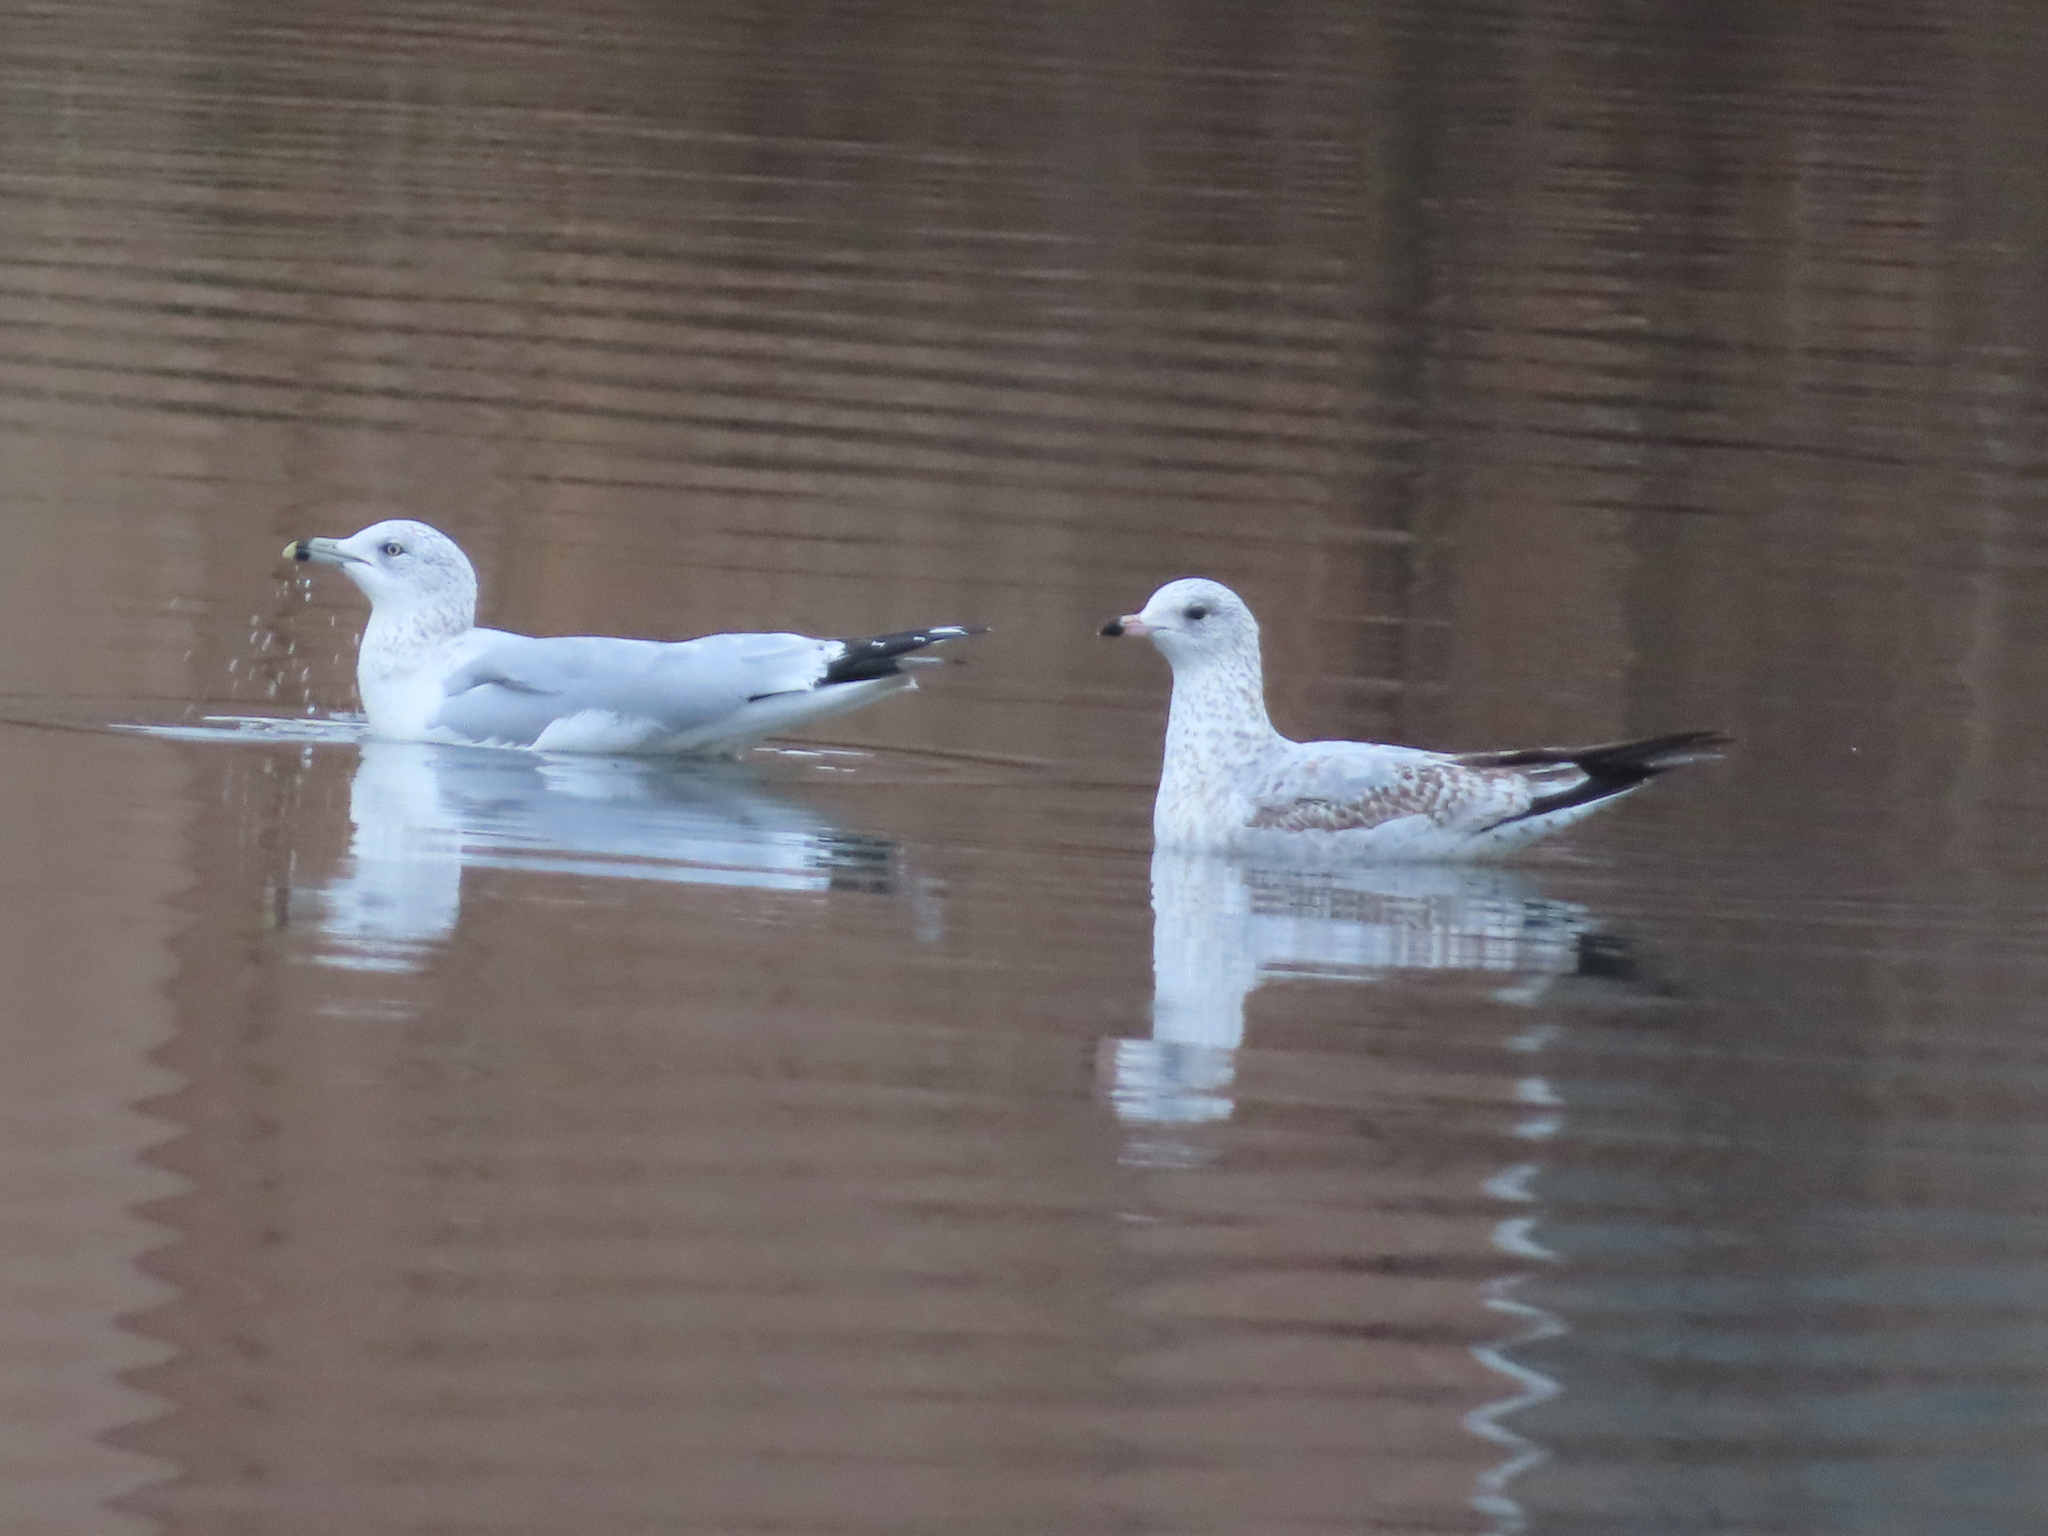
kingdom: Animalia
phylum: Chordata
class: Aves
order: Charadriiformes
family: Laridae
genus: Larus
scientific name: Larus delawarensis
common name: Ring-billed gull
